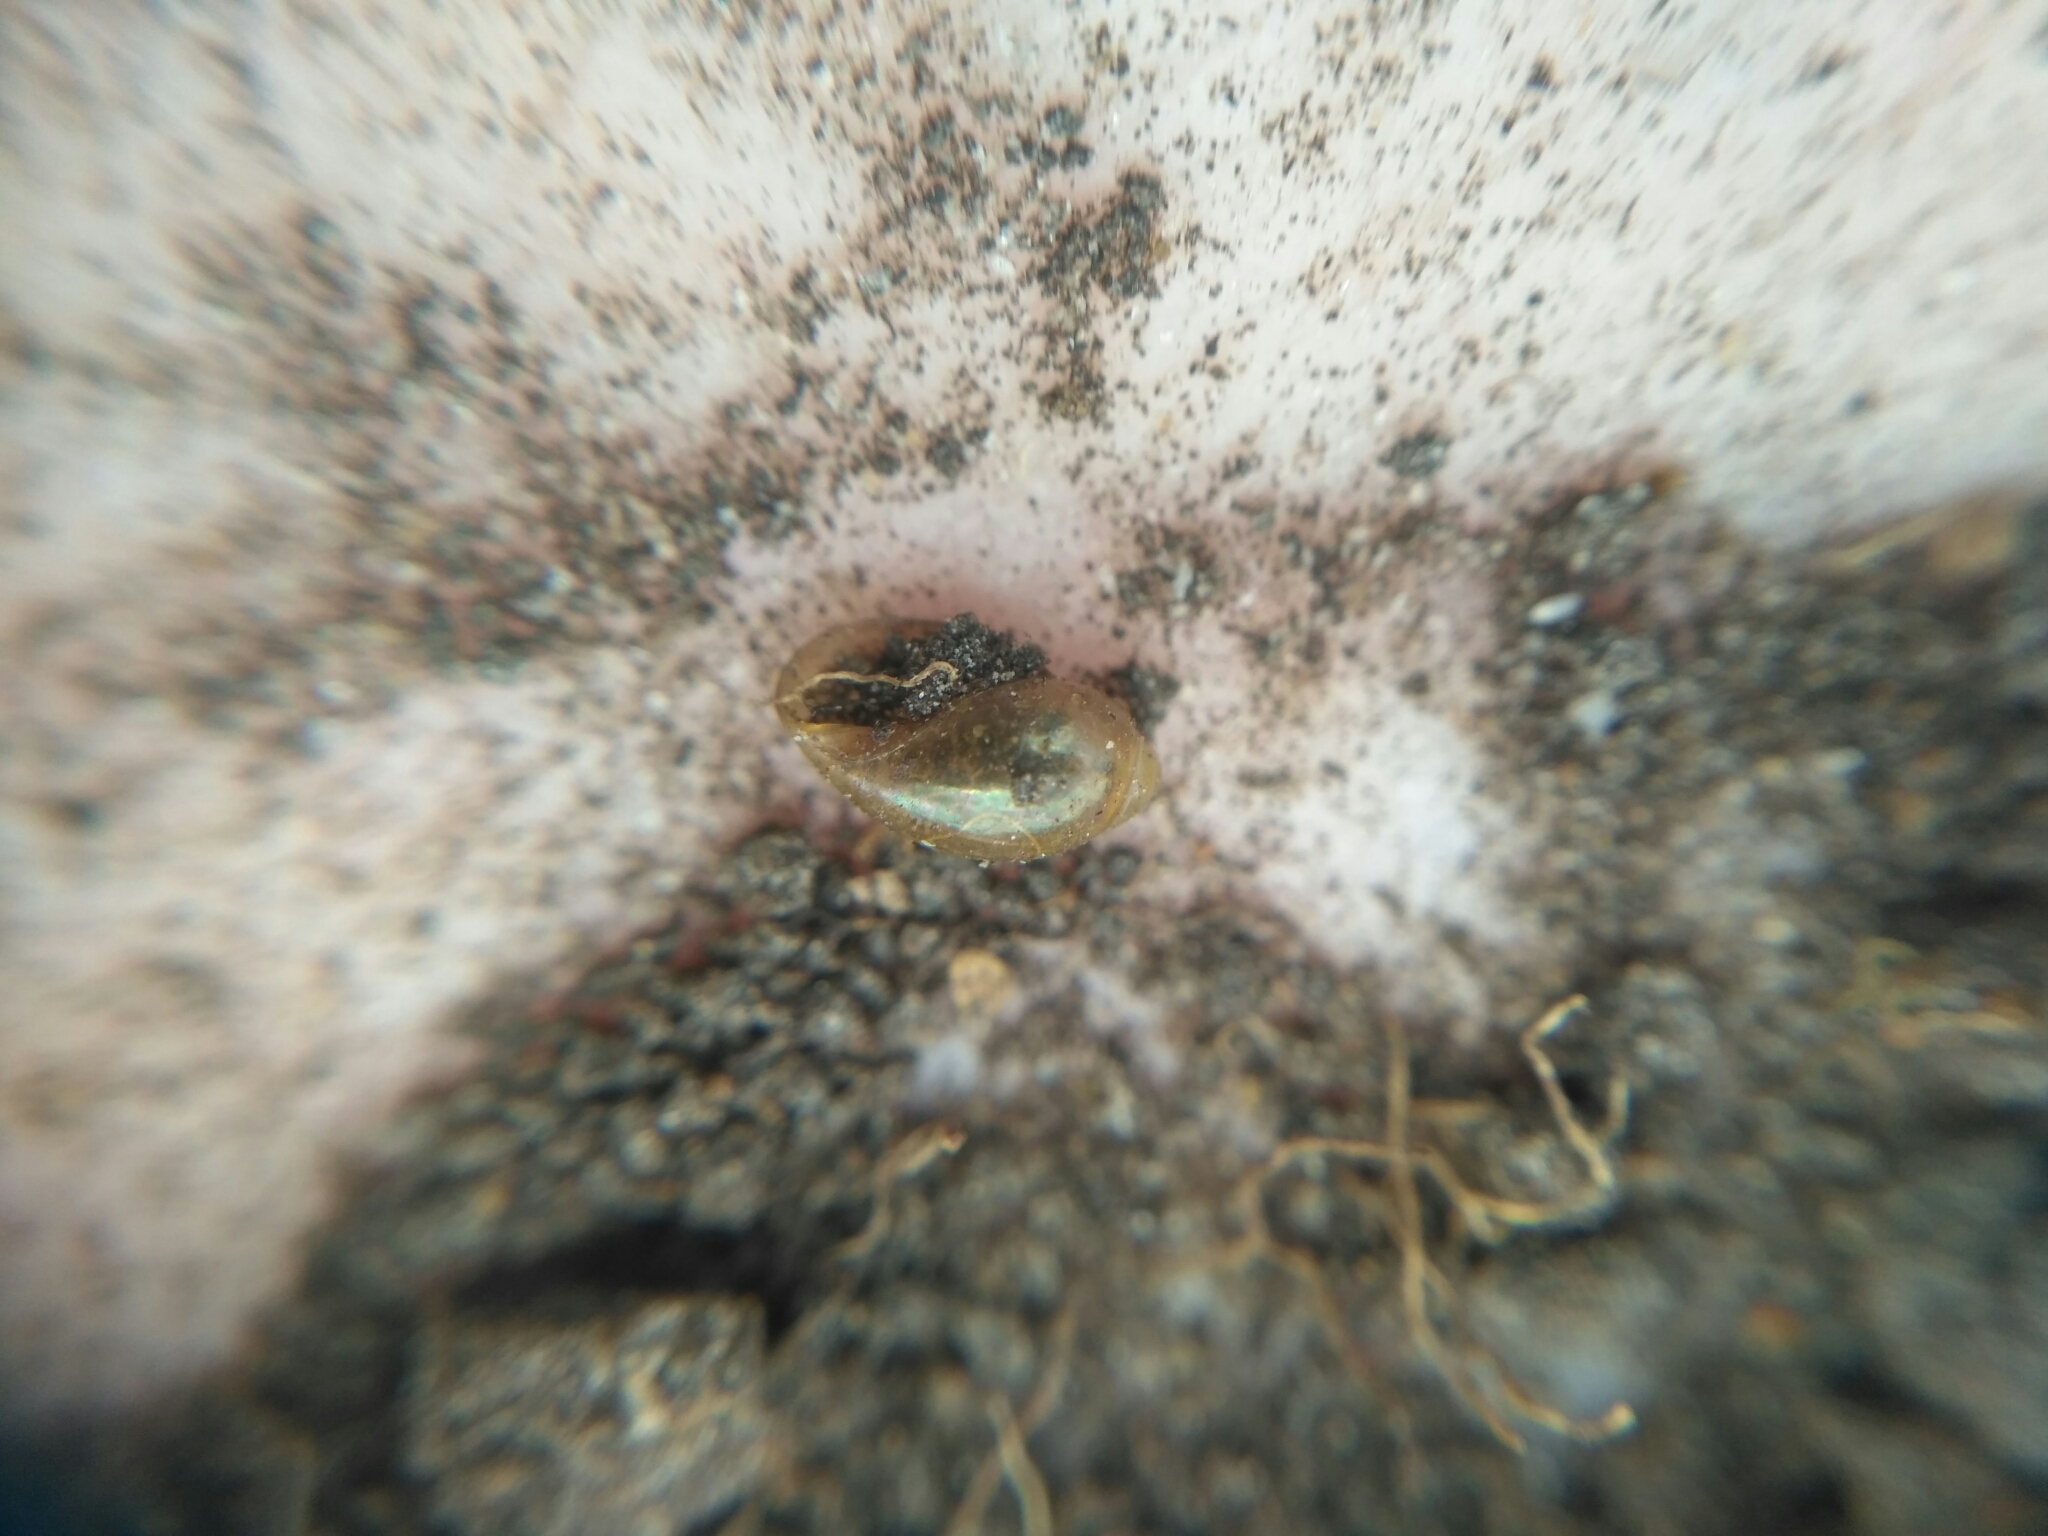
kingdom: Animalia
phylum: Mollusca
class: Gastropoda
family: Physidae
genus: Physa
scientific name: Physa fontinalis
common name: Common bladder snail
